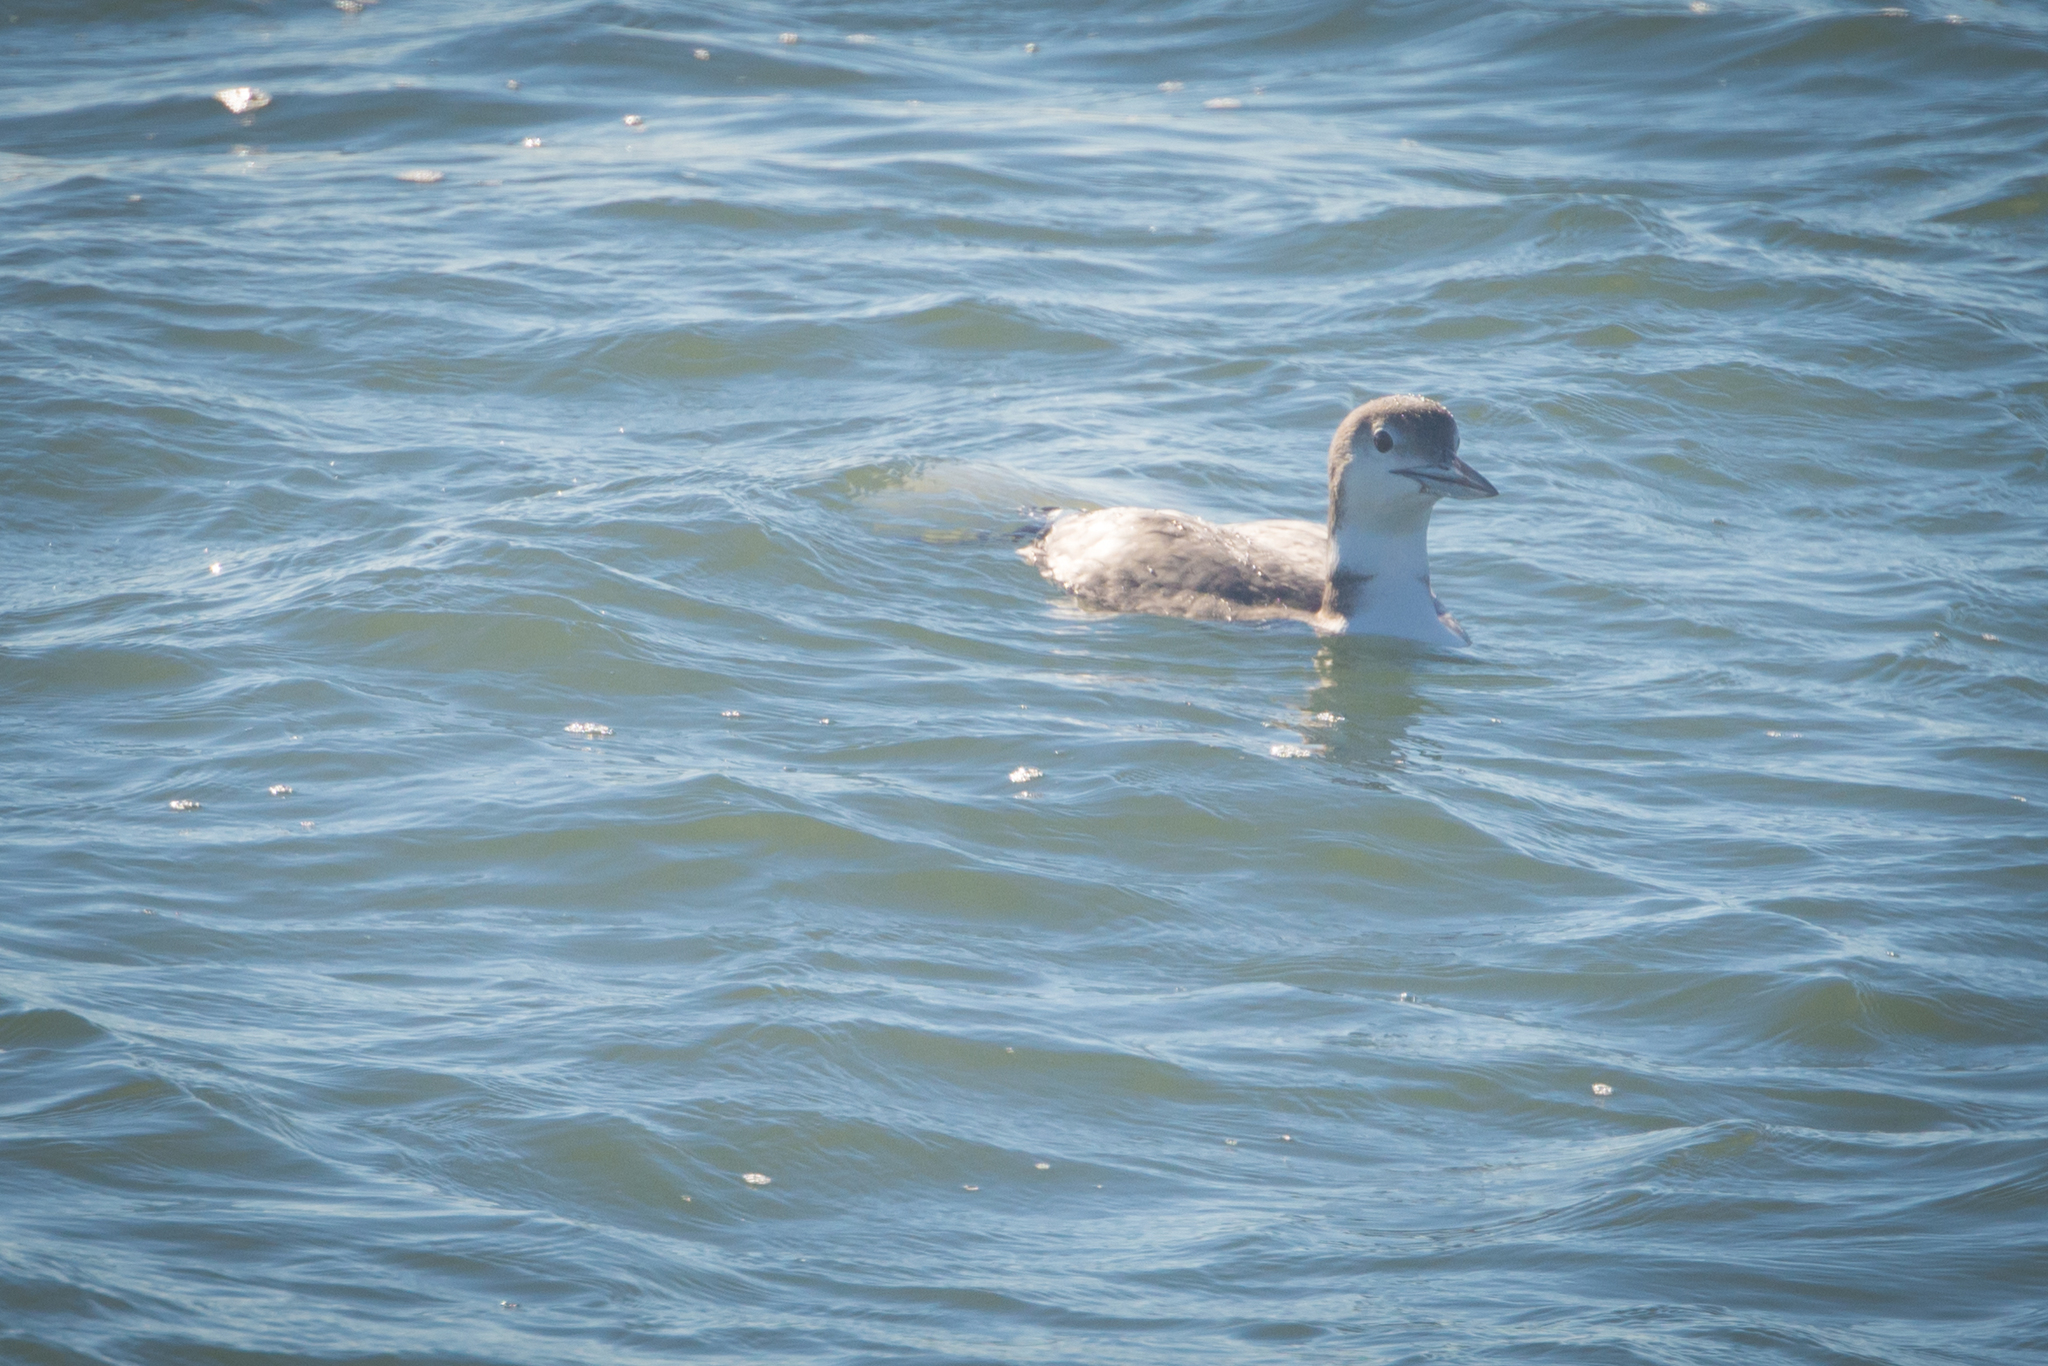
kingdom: Animalia
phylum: Chordata
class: Aves
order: Gaviiformes
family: Gaviidae
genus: Gavia
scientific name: Gavia immer
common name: Common loon
